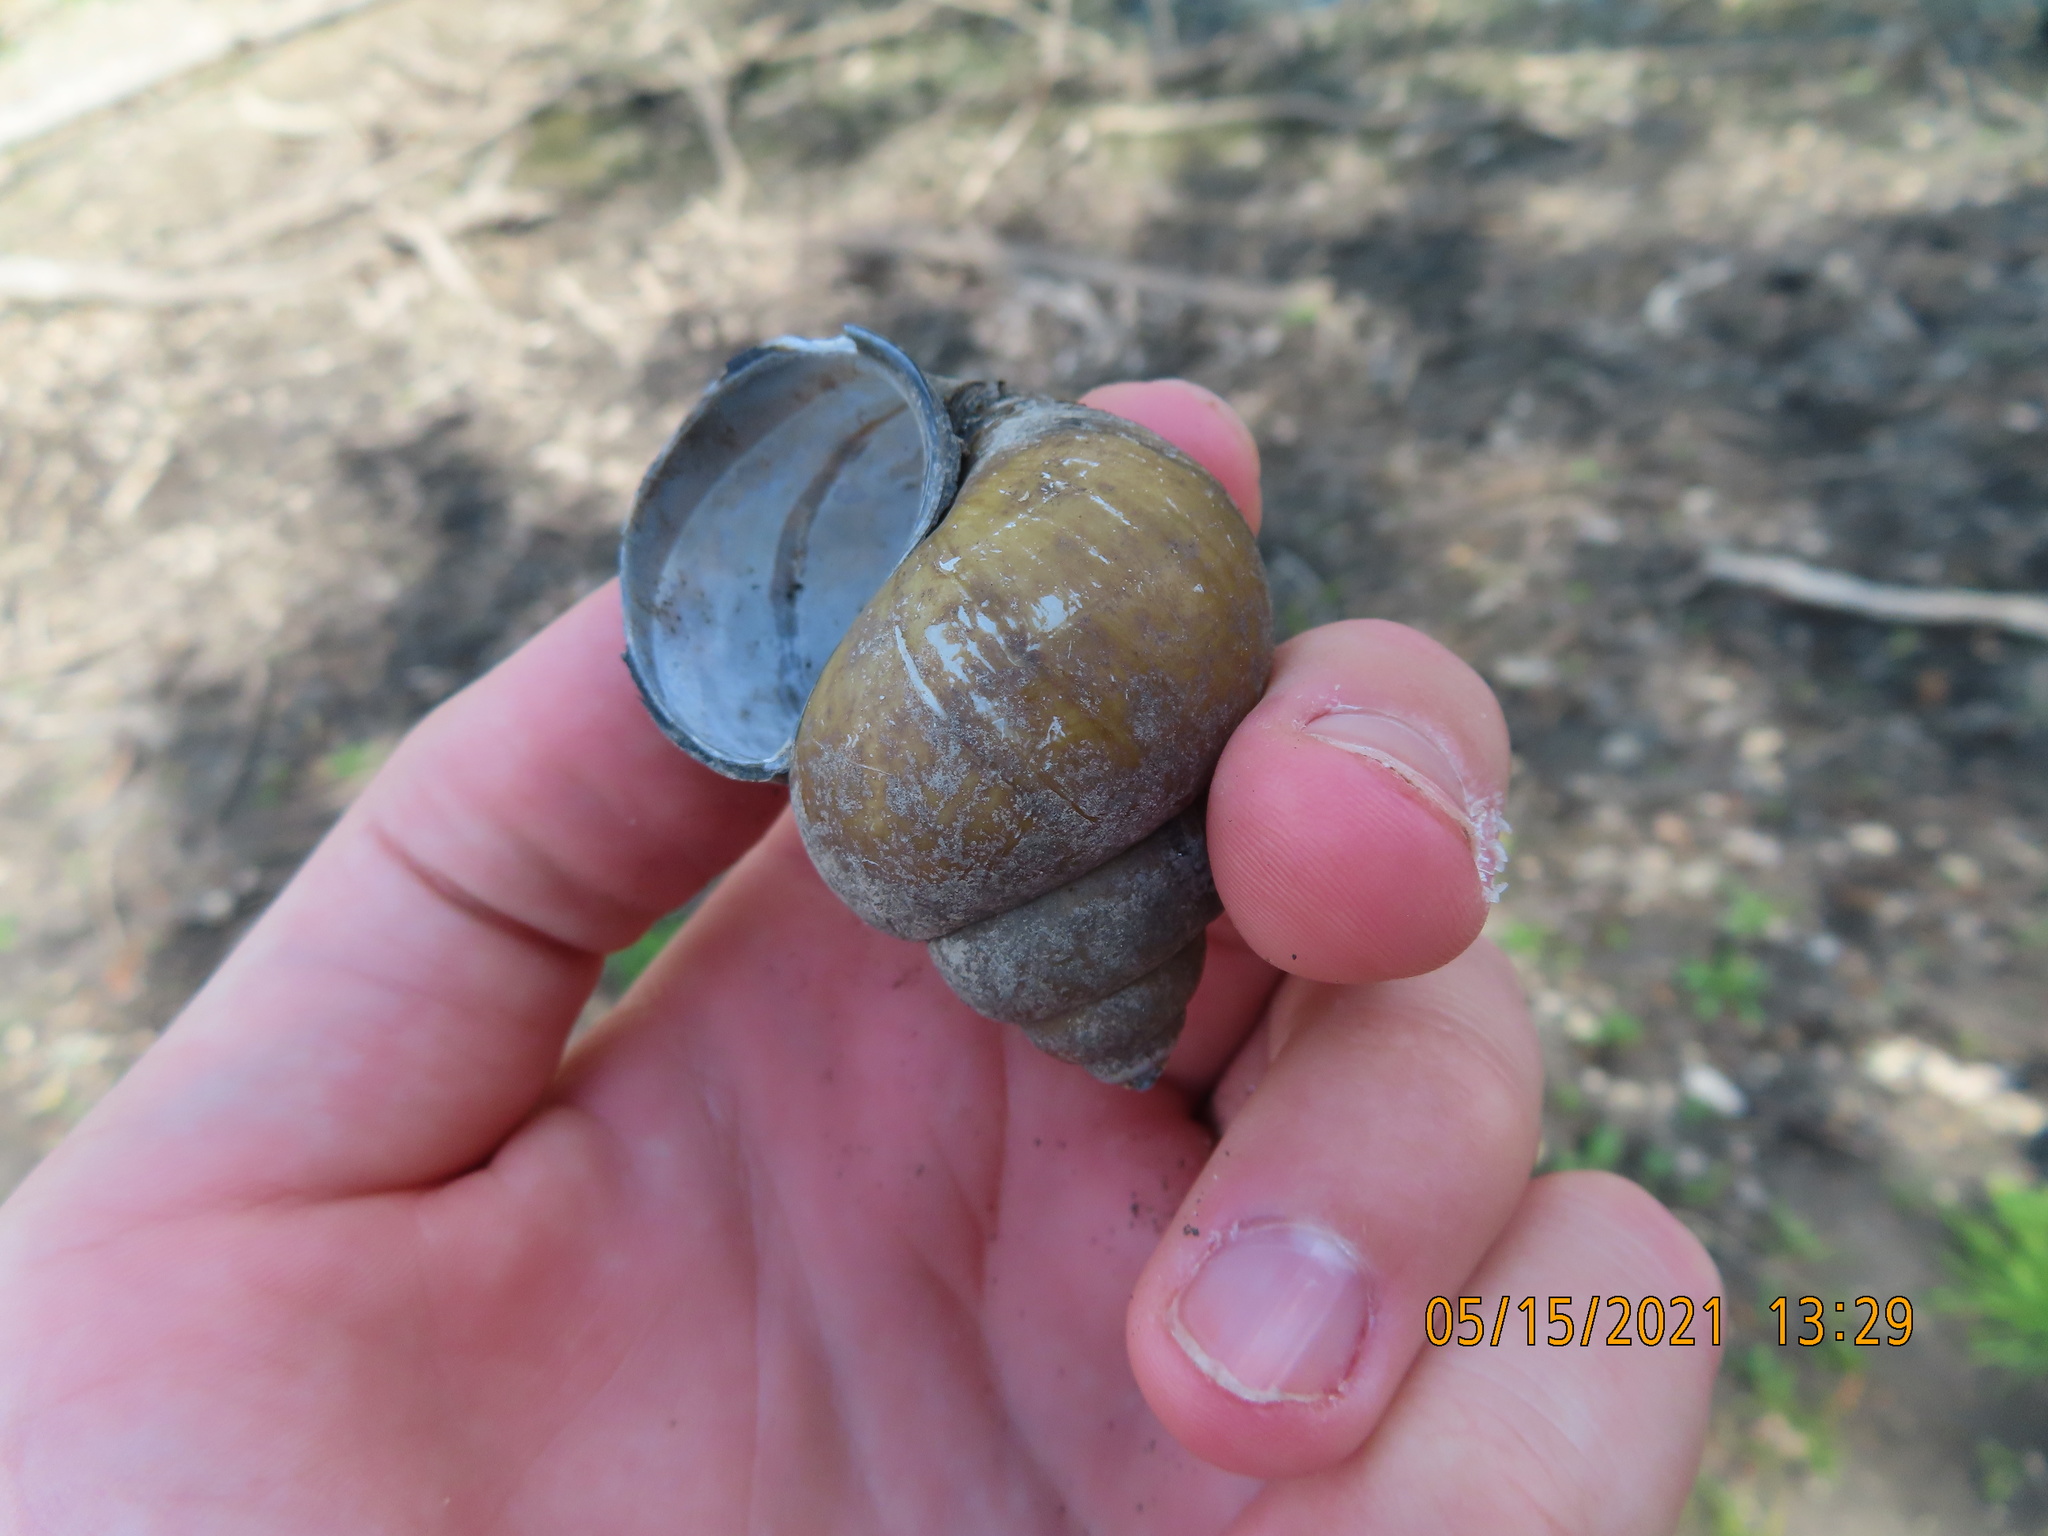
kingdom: Animalia
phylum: Mollusca
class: Gastropoda
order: Architaenioglossa
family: Viviparidae
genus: Cipangopaludina
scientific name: Cipangopaludina chinensis
